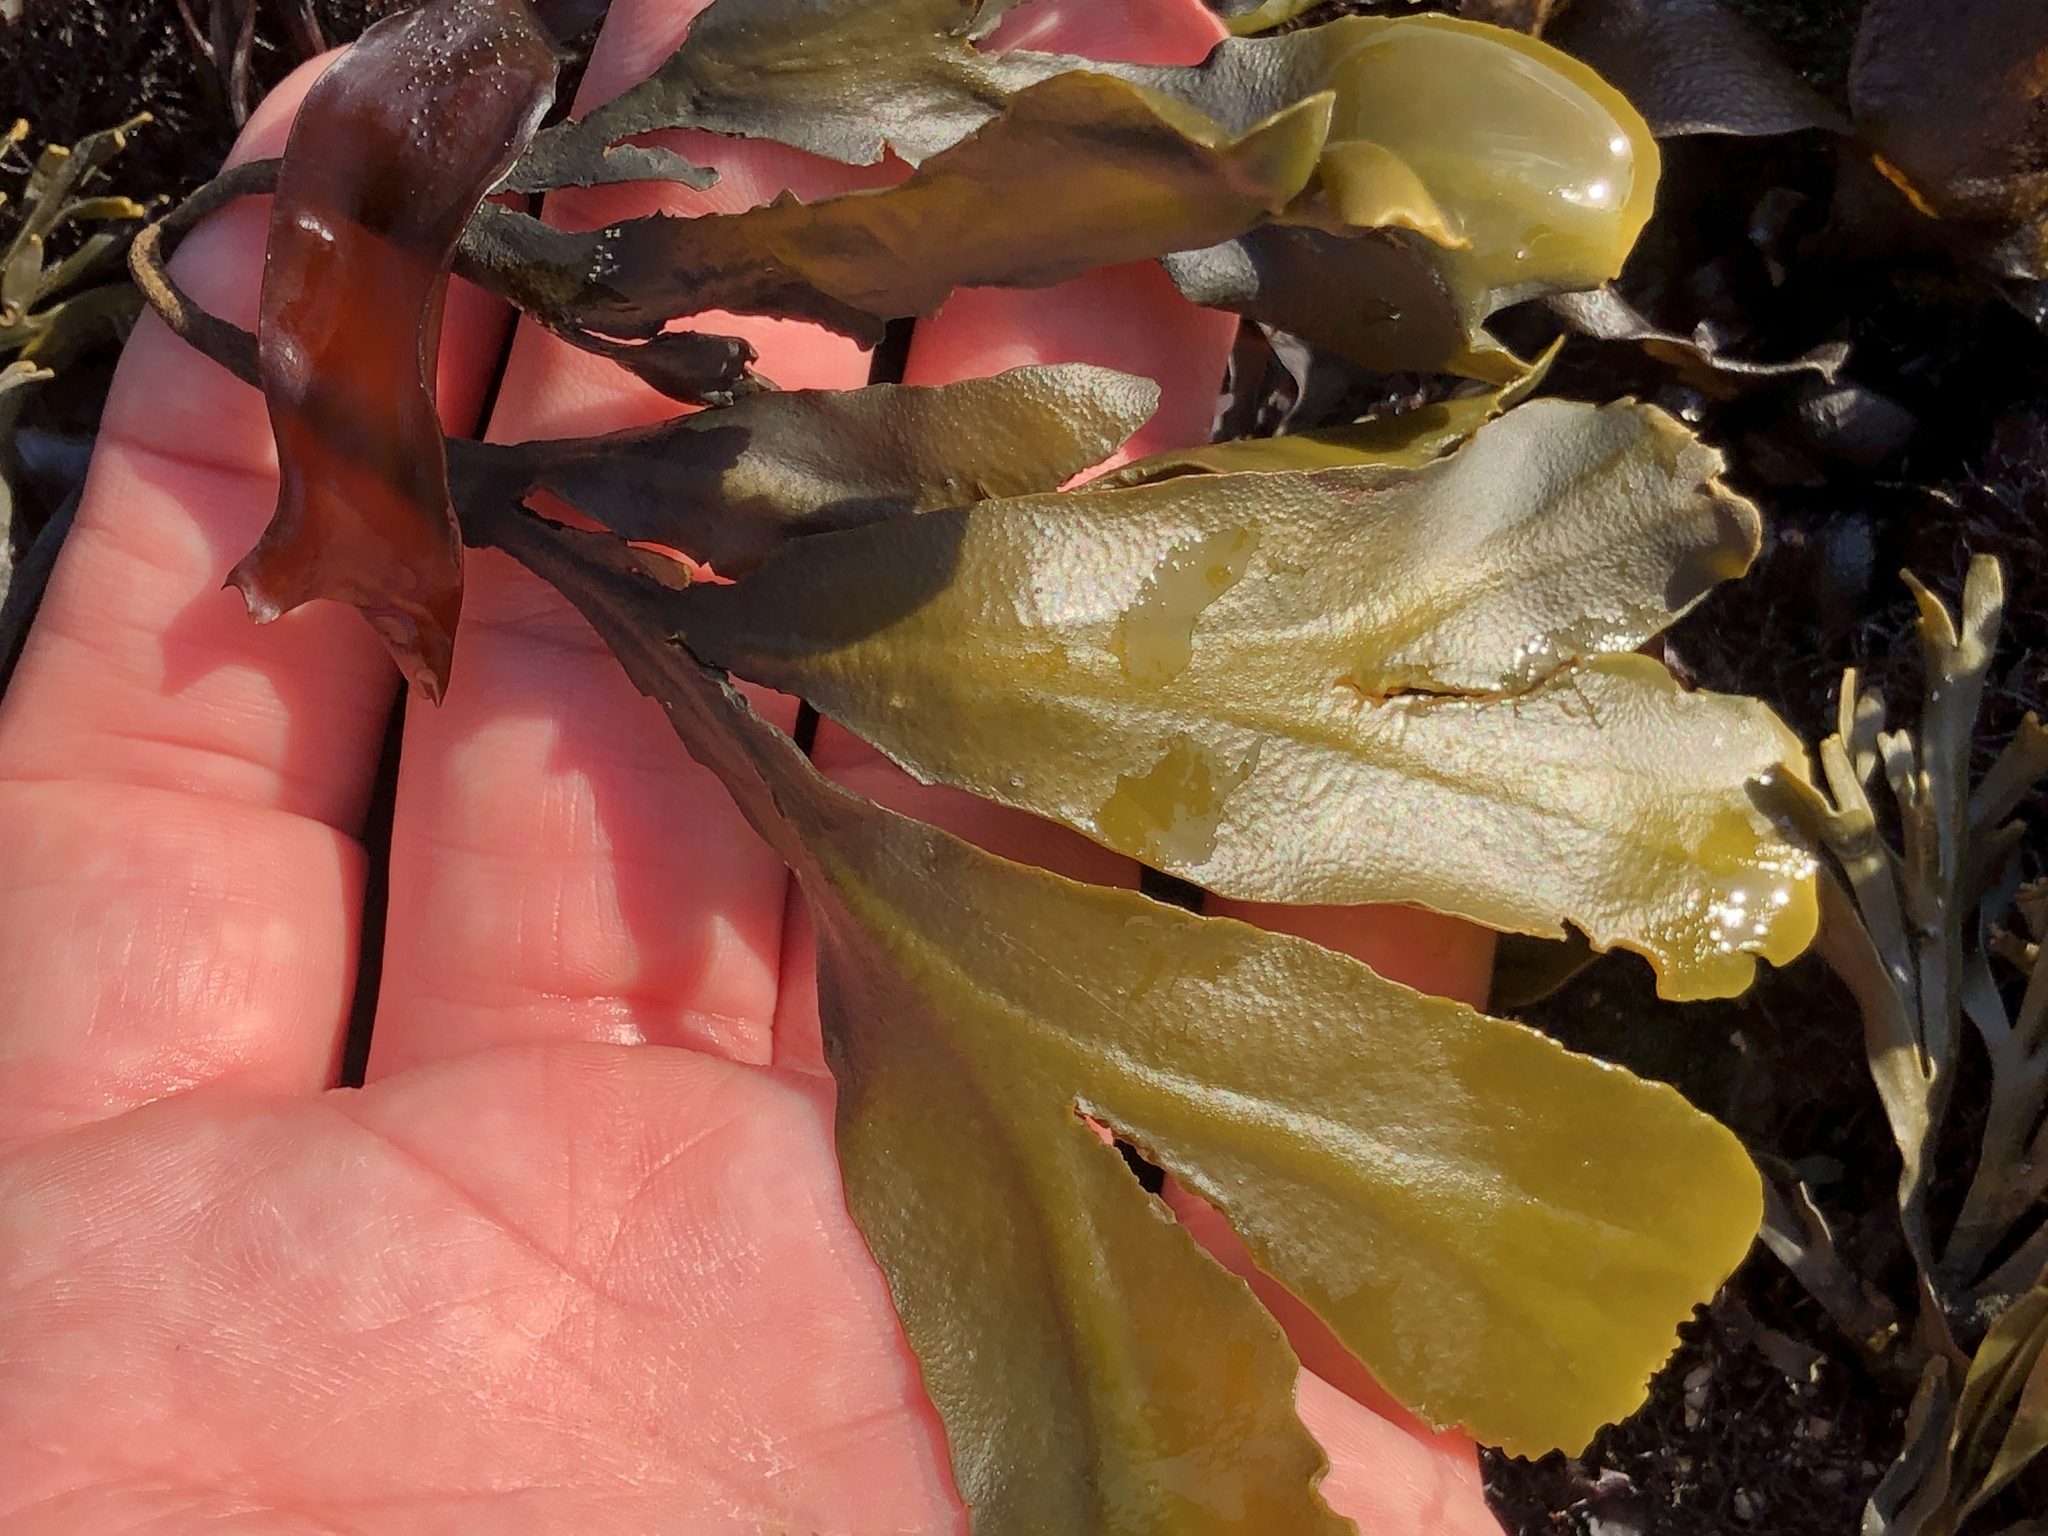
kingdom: Chromista
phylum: Ochrophyta
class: Phaeophyceae
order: Fucales
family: Fucaceae
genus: Fucus
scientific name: Fucus distichus
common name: Rockweed
